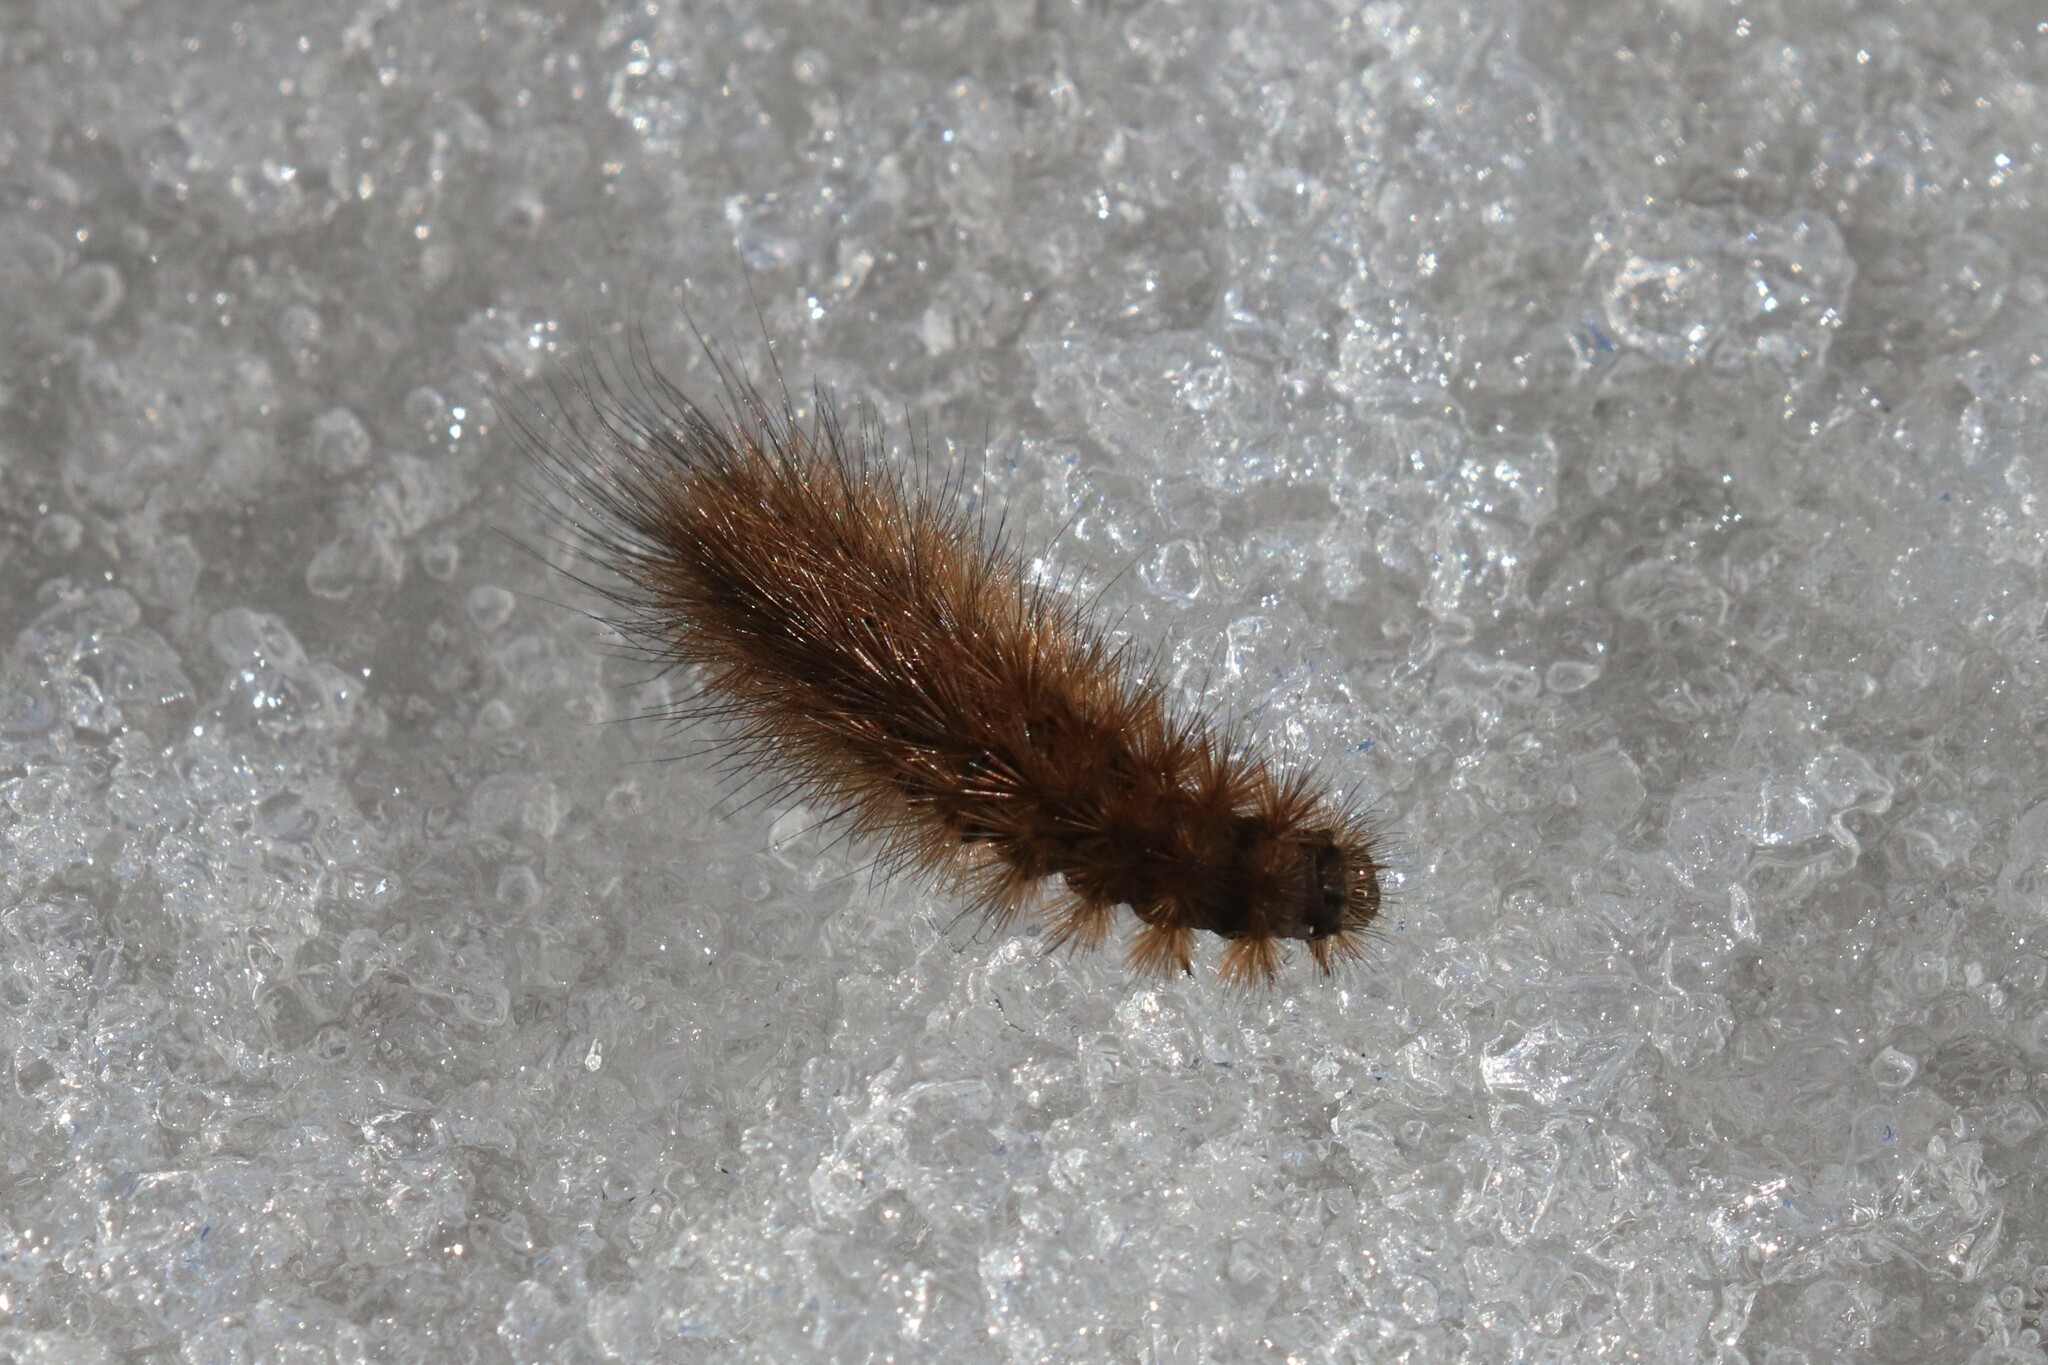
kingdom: Animalia
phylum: Arthropoda
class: Insecta
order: Lepidoptera
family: Erebidae
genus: Phragmatobia
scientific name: Phragmatobia fuliginosa
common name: Ruby tiger
